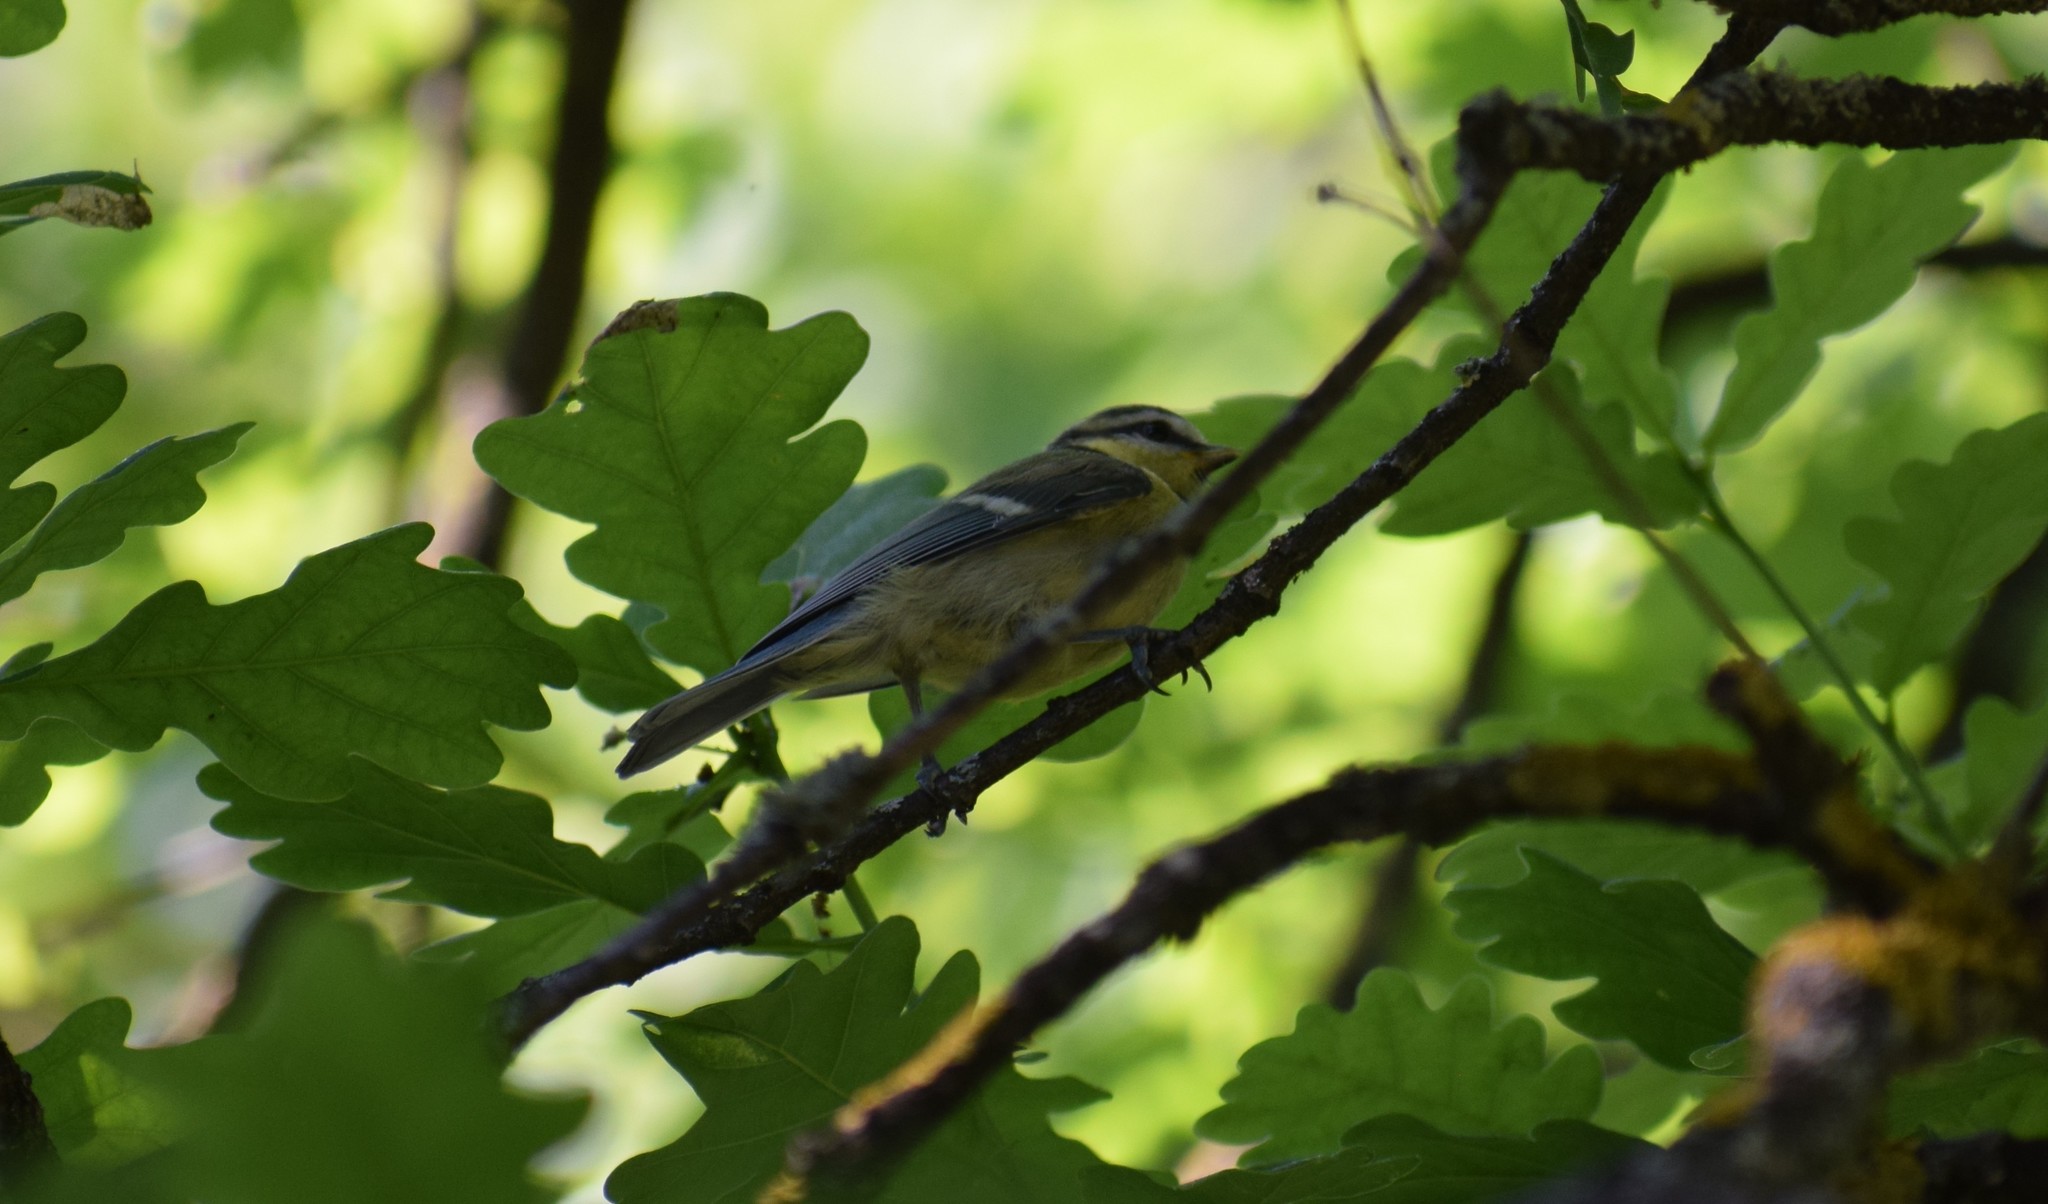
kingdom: Animalia
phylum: Chordata
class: Aves
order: Passeriformes
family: Paridae
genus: Cyanistes
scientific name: Cyanistes caeruleus
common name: Eurasian blue tit
